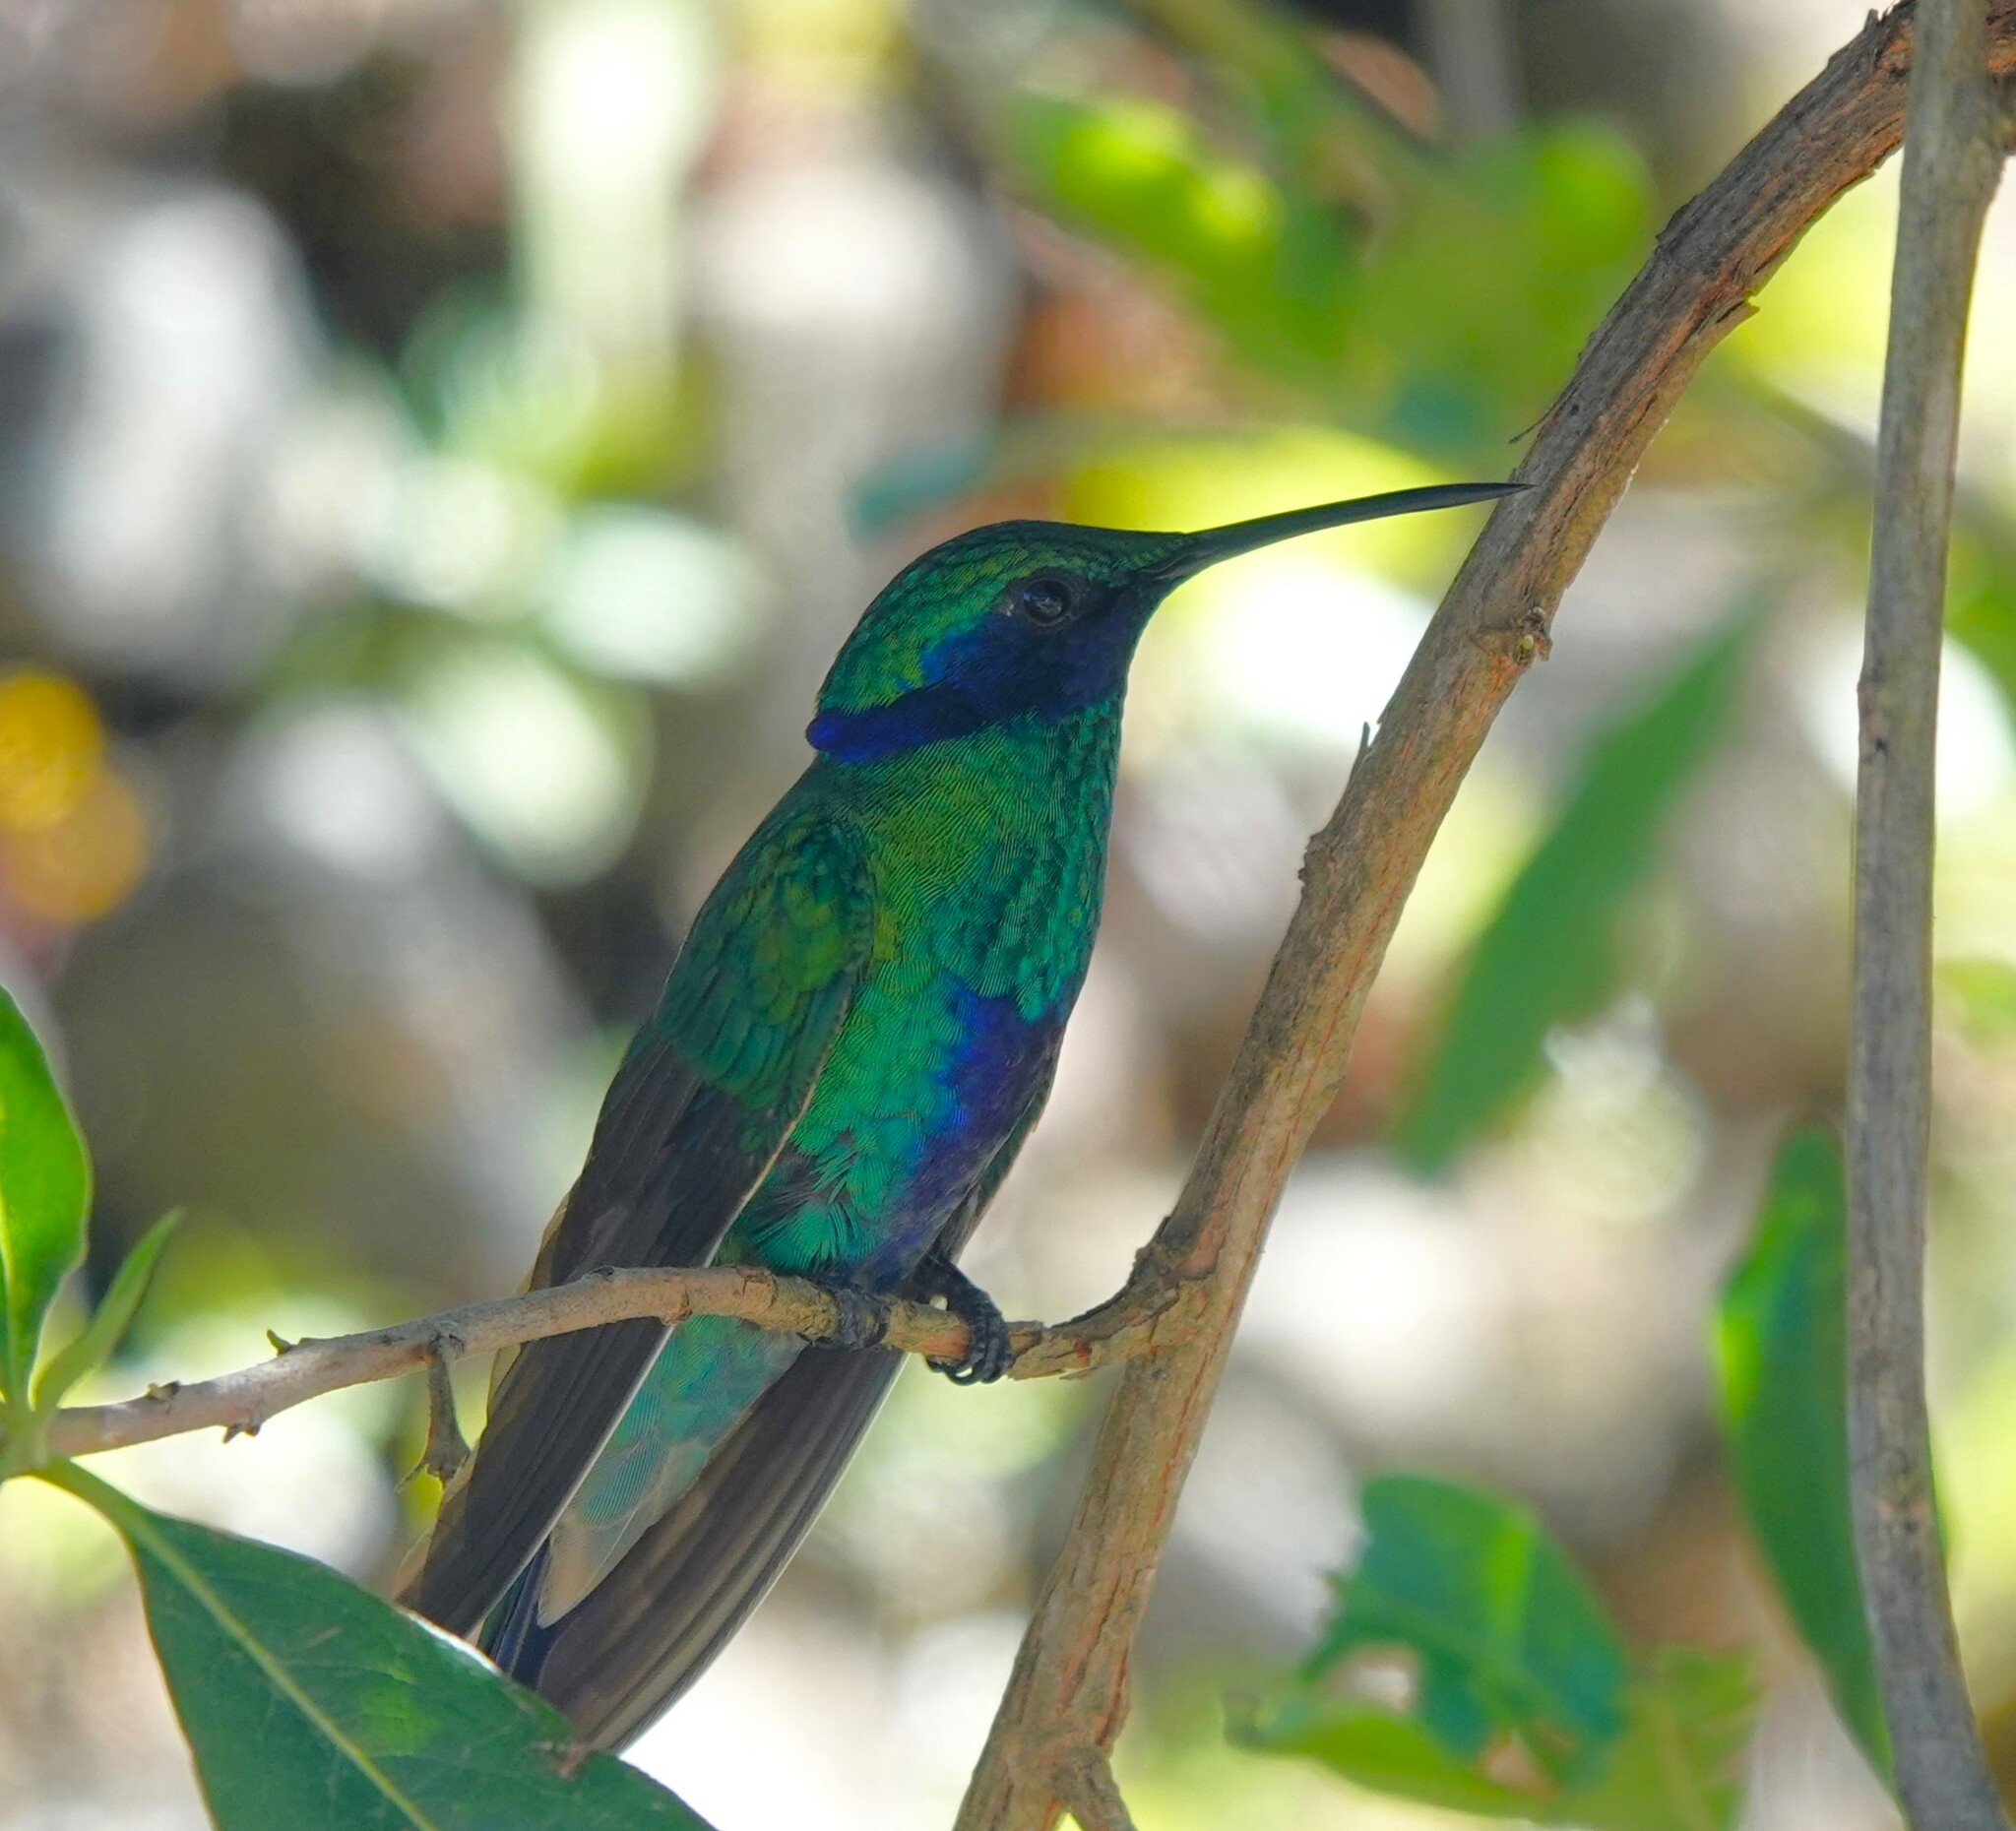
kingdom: Animalia
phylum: Chordata
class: Aves
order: Apodiformes
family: Trochilidae
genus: Colibri
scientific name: Colibri coruscans
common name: Sparkling violetear
